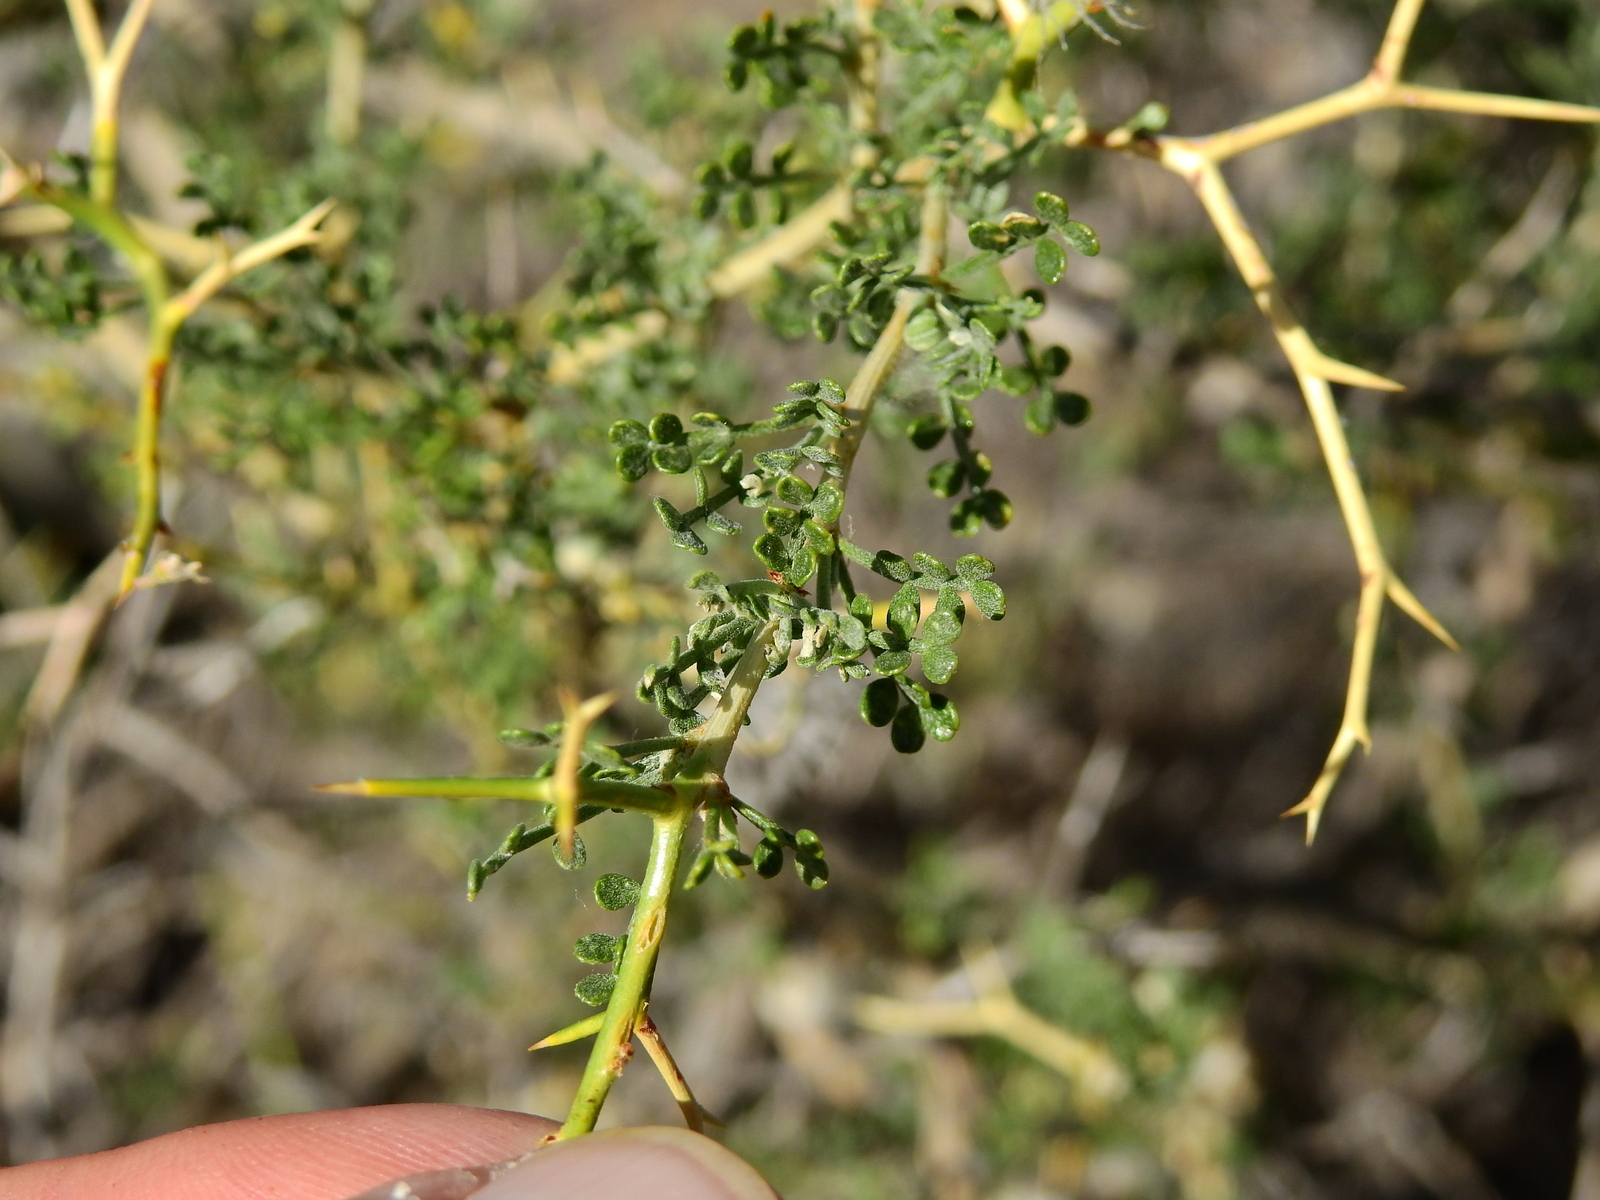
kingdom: Plantae
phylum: Tracheophyta
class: Magnoliopsida
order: Fabales
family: Fabaceae
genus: Adesmia
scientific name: Adesmia trijuga
